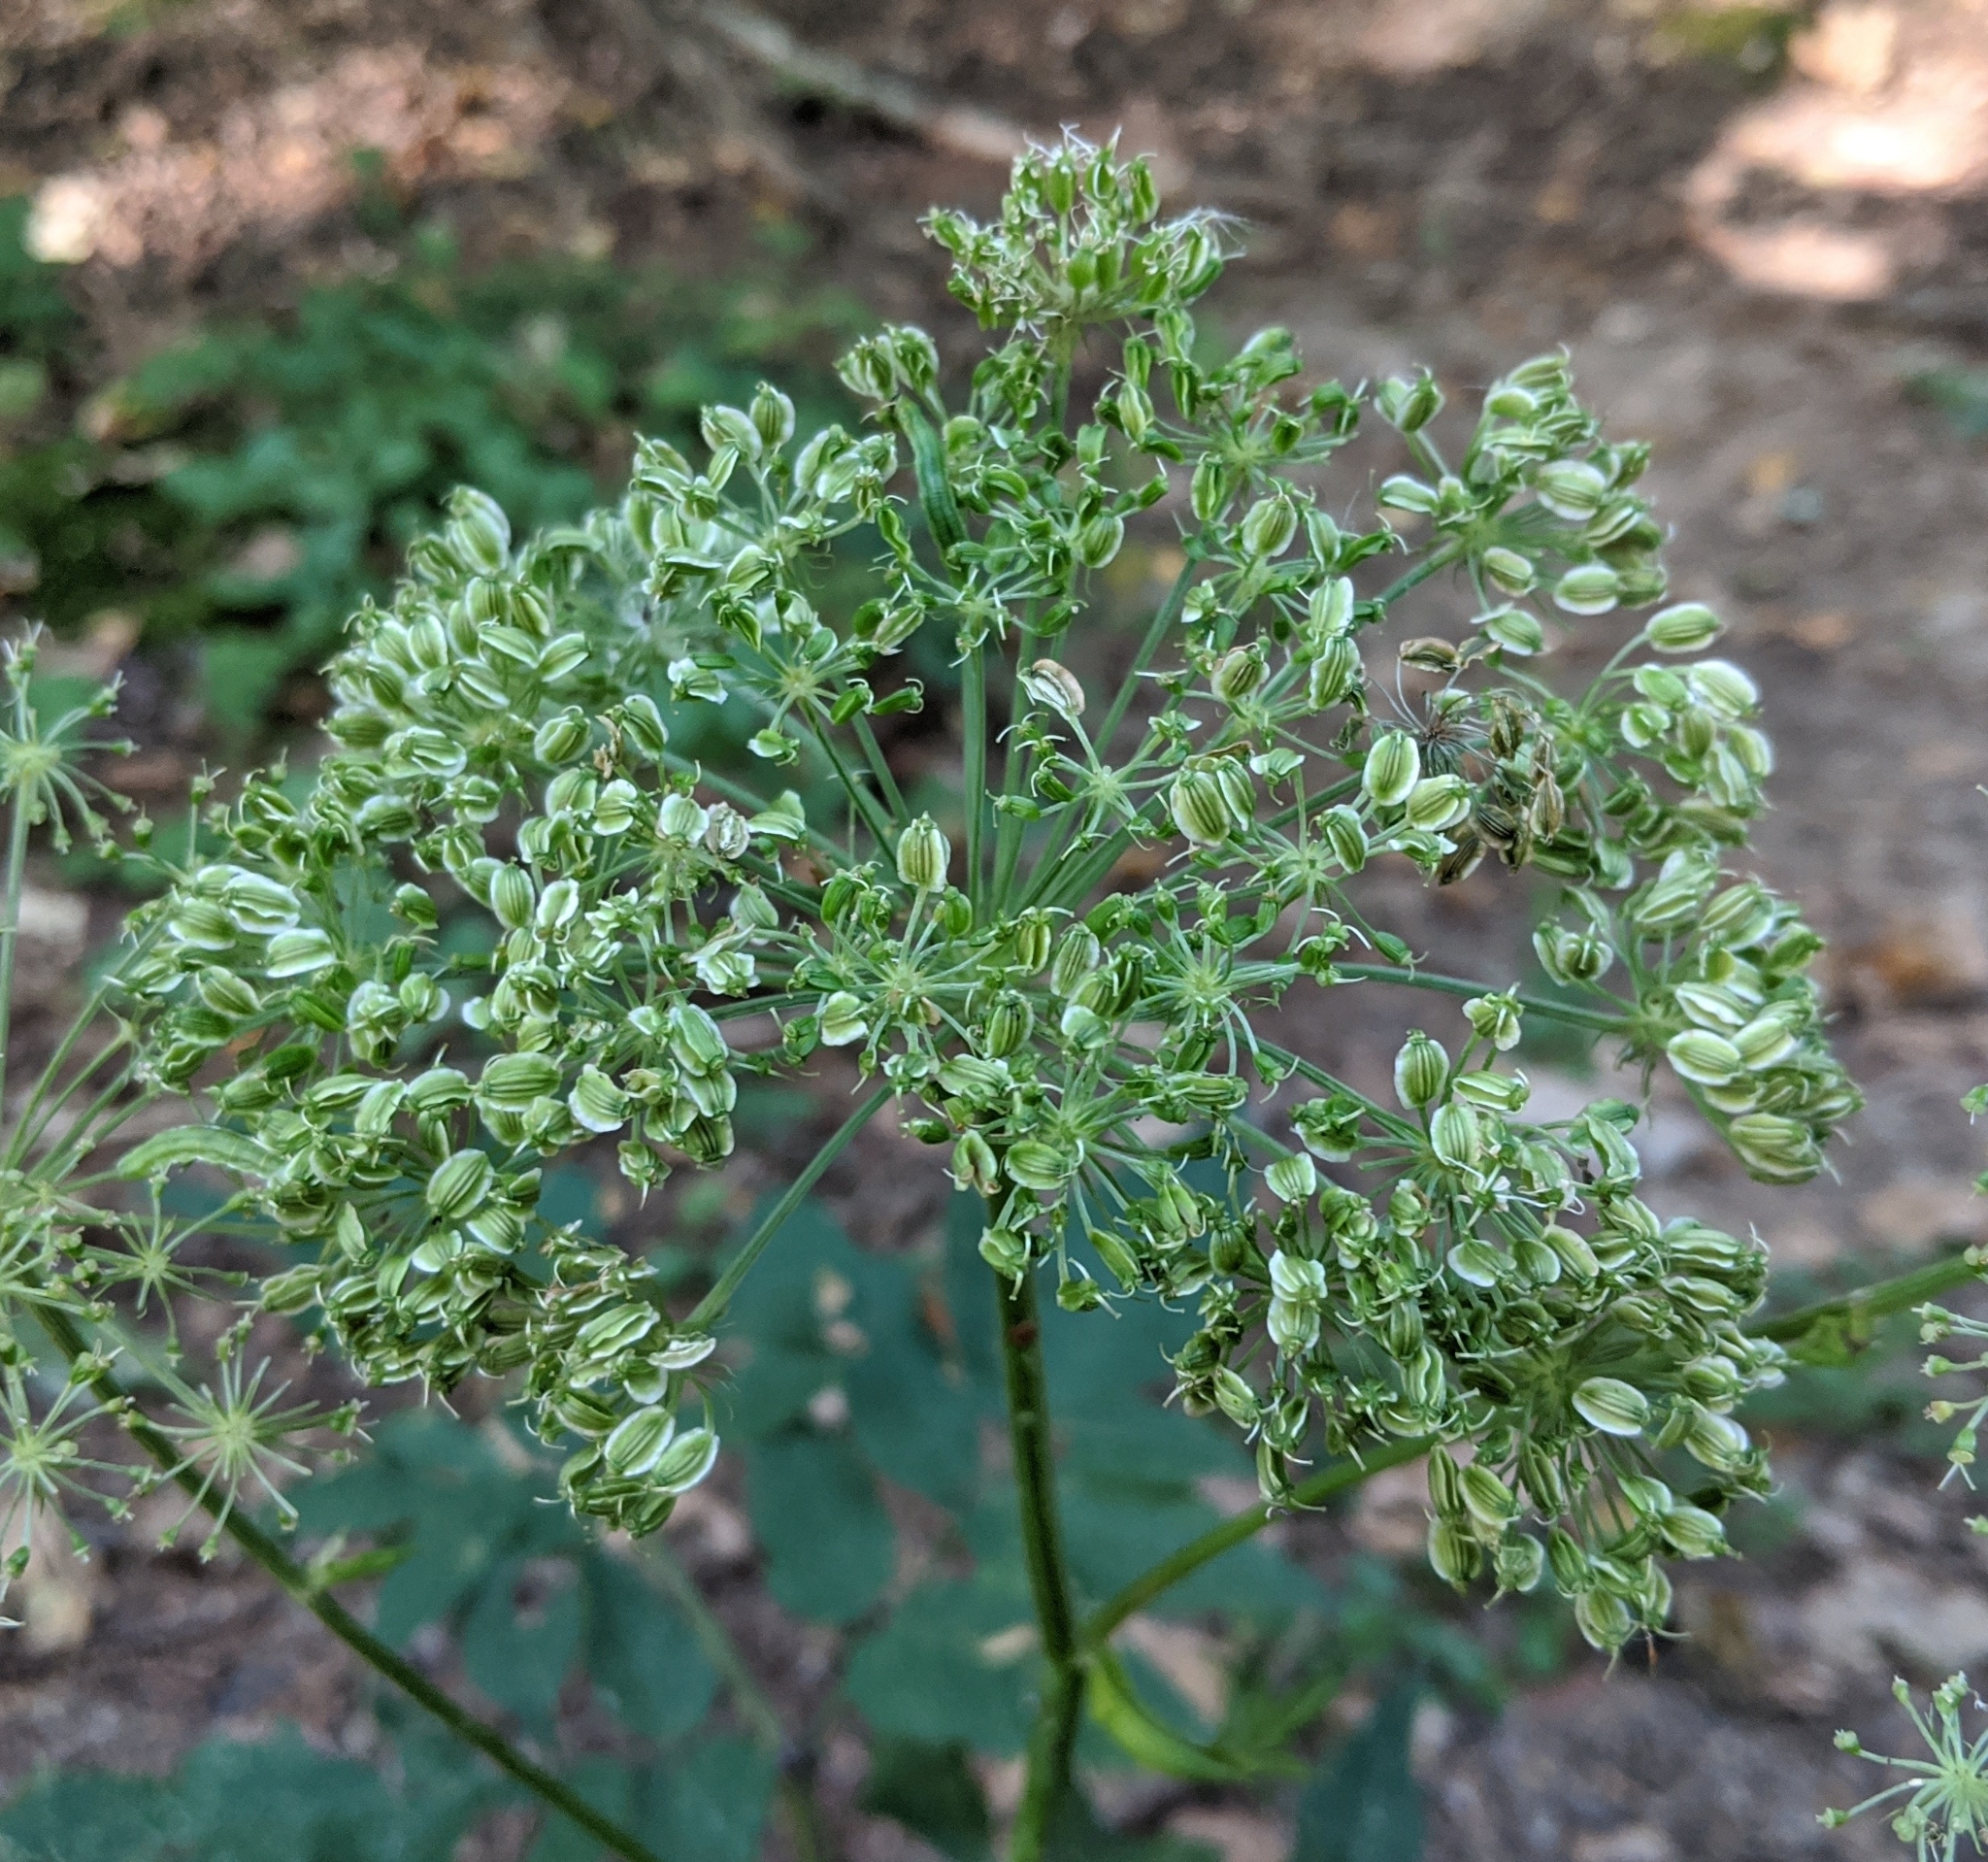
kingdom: Plantae
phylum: Tracheophyta
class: Magnoliopsida
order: Apiales
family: Apiaceae
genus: Angelica
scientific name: Angelica sylvestris
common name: Wild angelica
